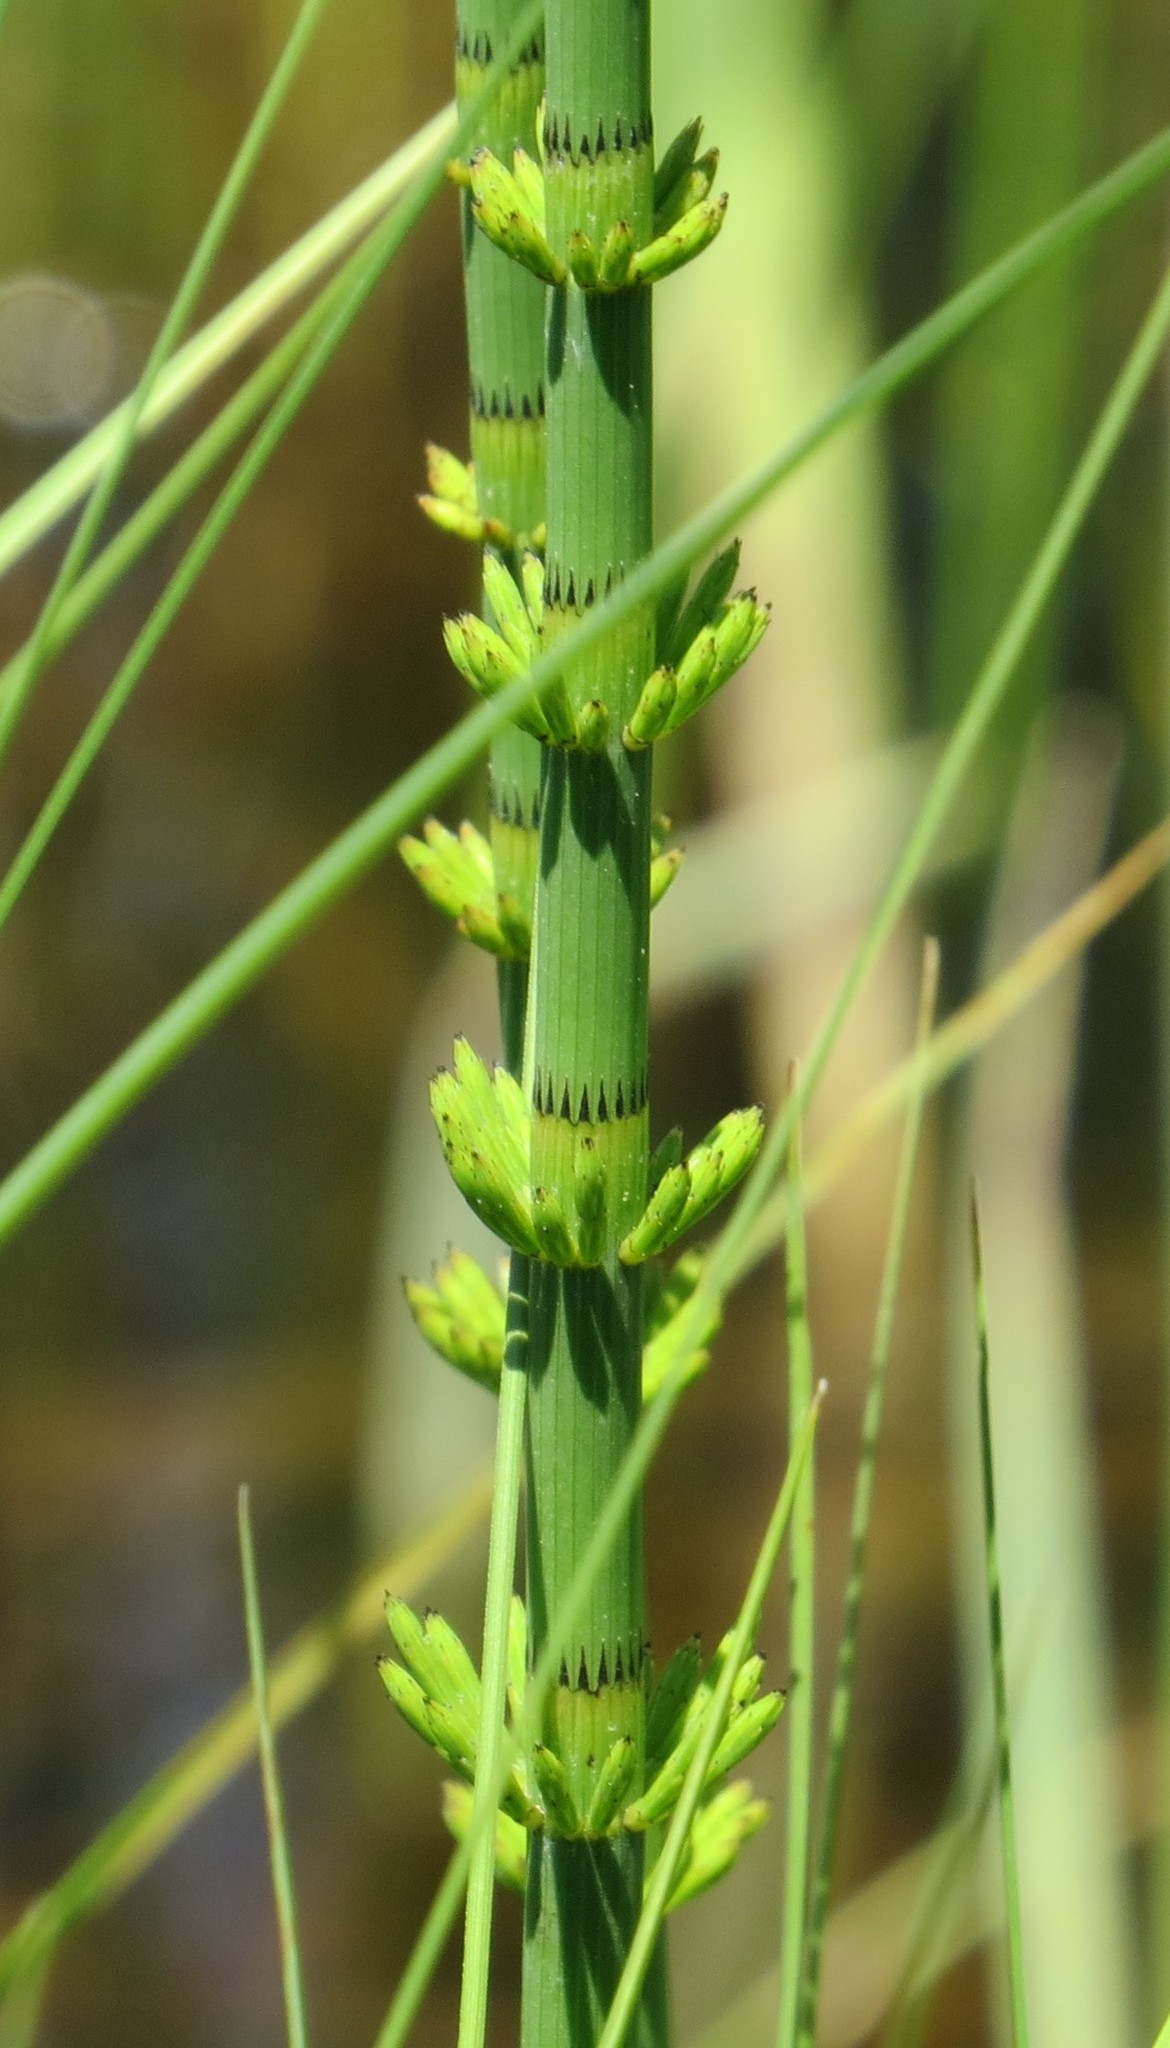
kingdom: Plantae
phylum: Tracheophyta
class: Polypodiopsida
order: Equisetales
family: Equisetaceae
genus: Equisetum
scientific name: Equisetum fluviatile
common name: Water horsetail
